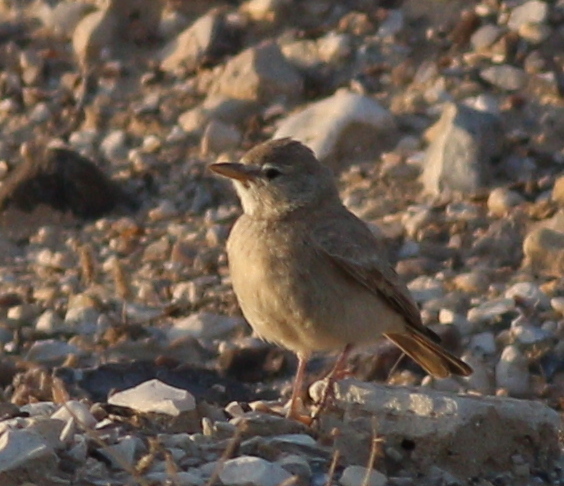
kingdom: Animalia
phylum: Chordata
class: Aves
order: Passeriformes
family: Alaudidae
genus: Ammomanes
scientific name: Ammomanes deserti
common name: Desert lark
